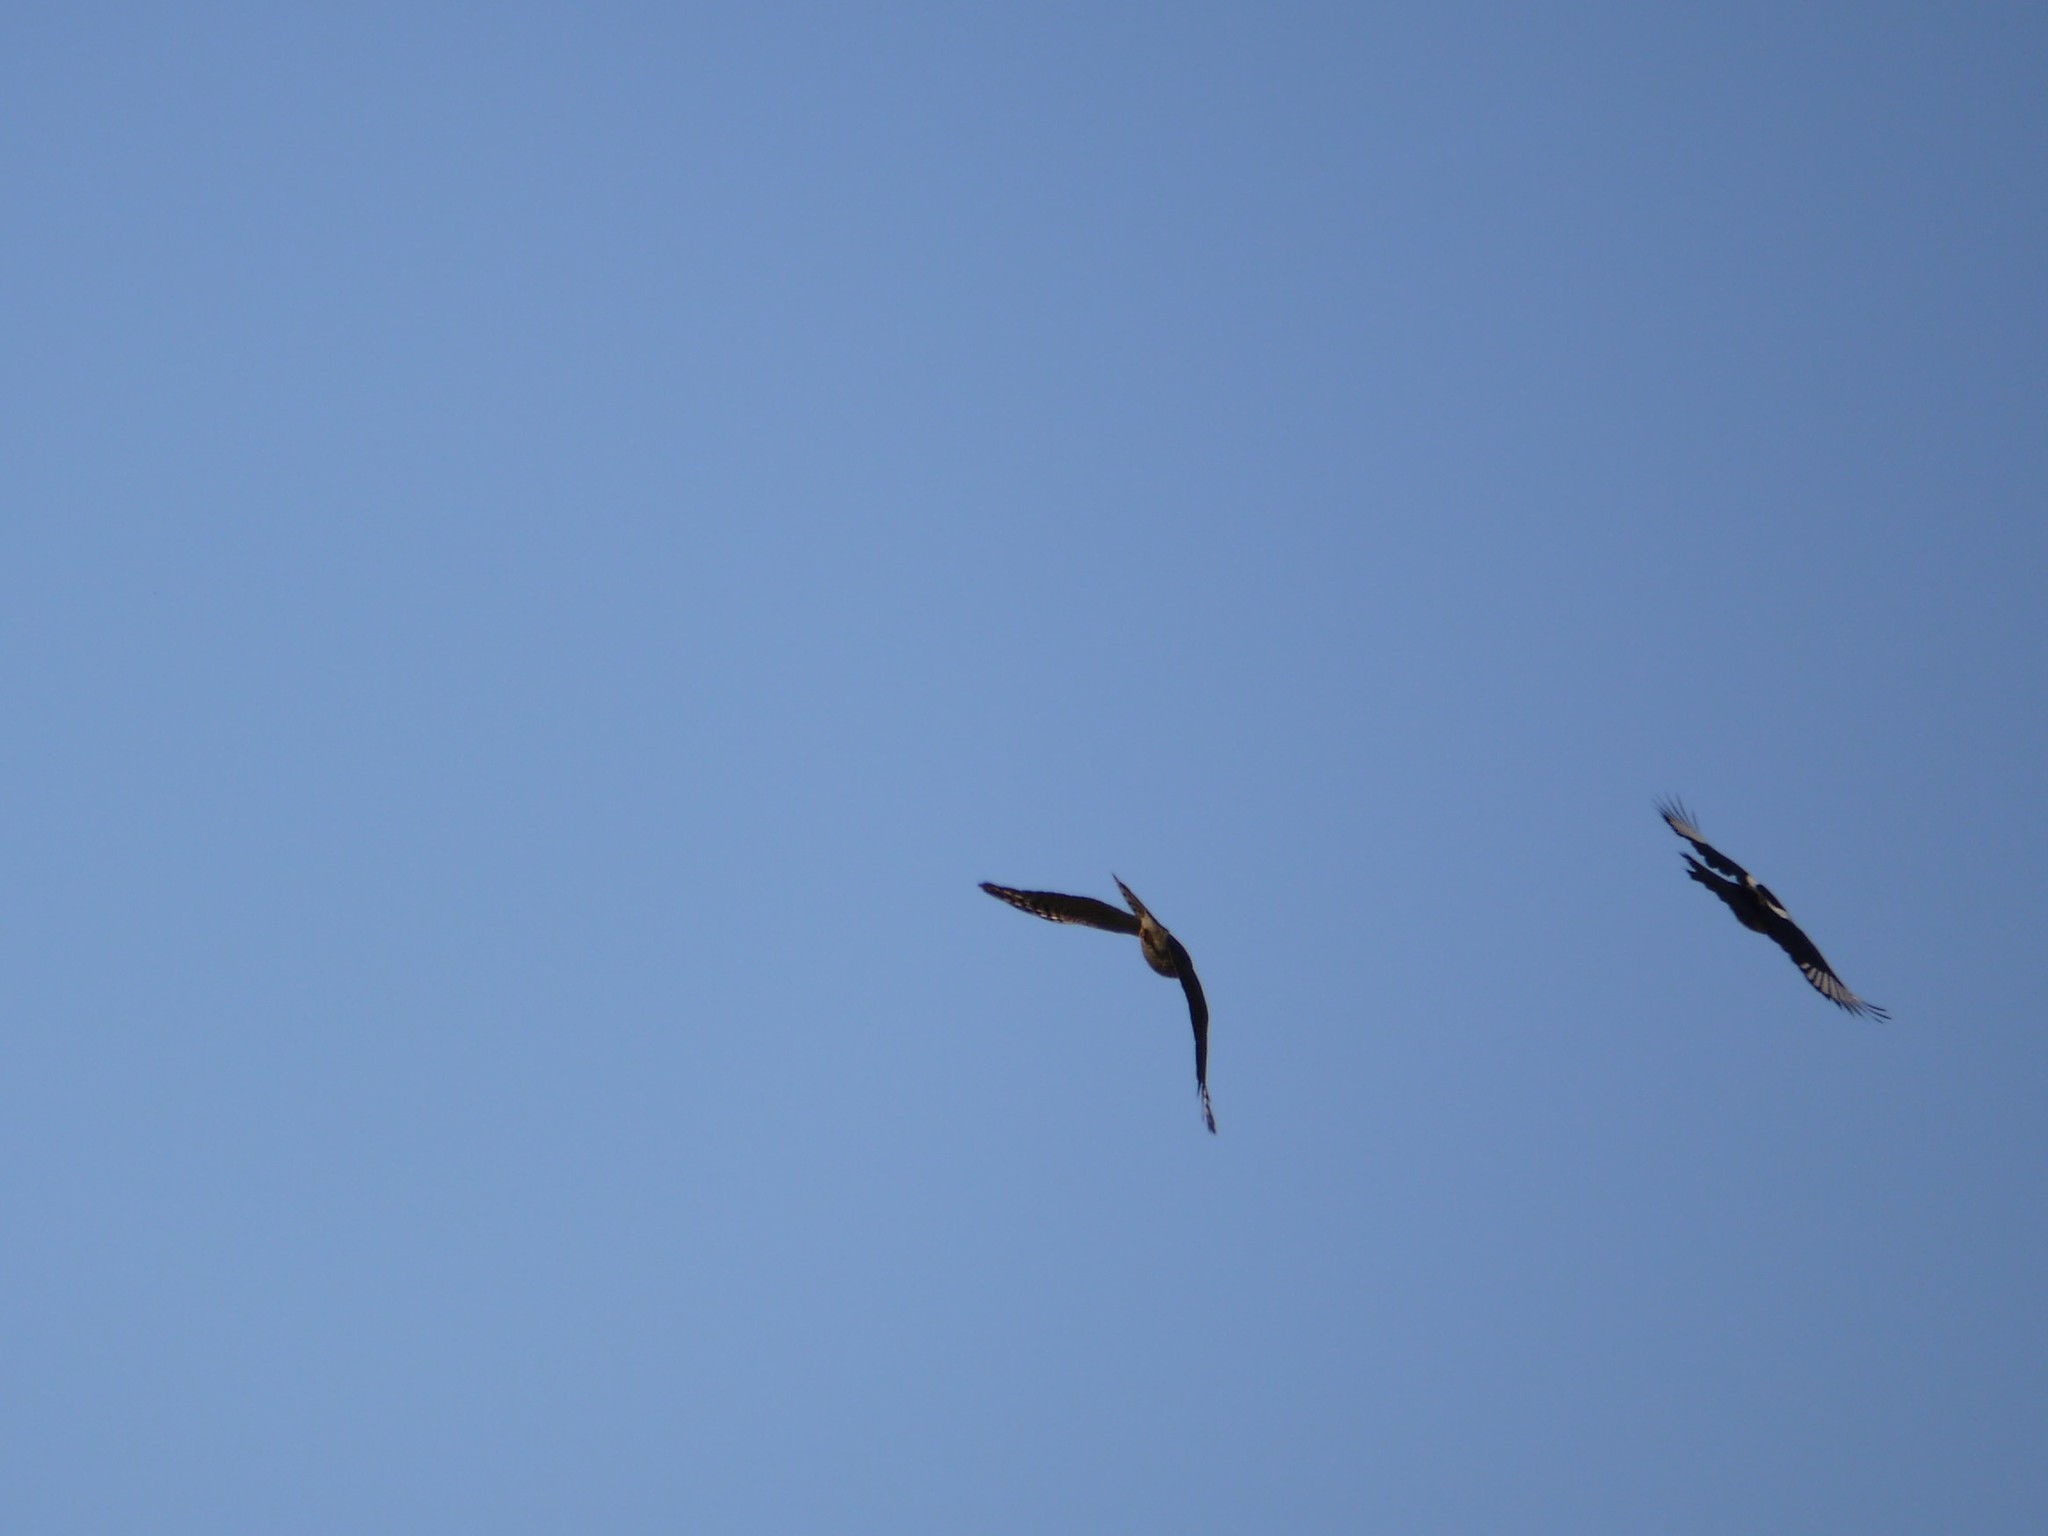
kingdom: Animalia
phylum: Chordata
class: Aves
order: Accipitriformes
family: Accipitridae
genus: Accipiter
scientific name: Accipiter nisus
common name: Eurasian sparrowhawk
